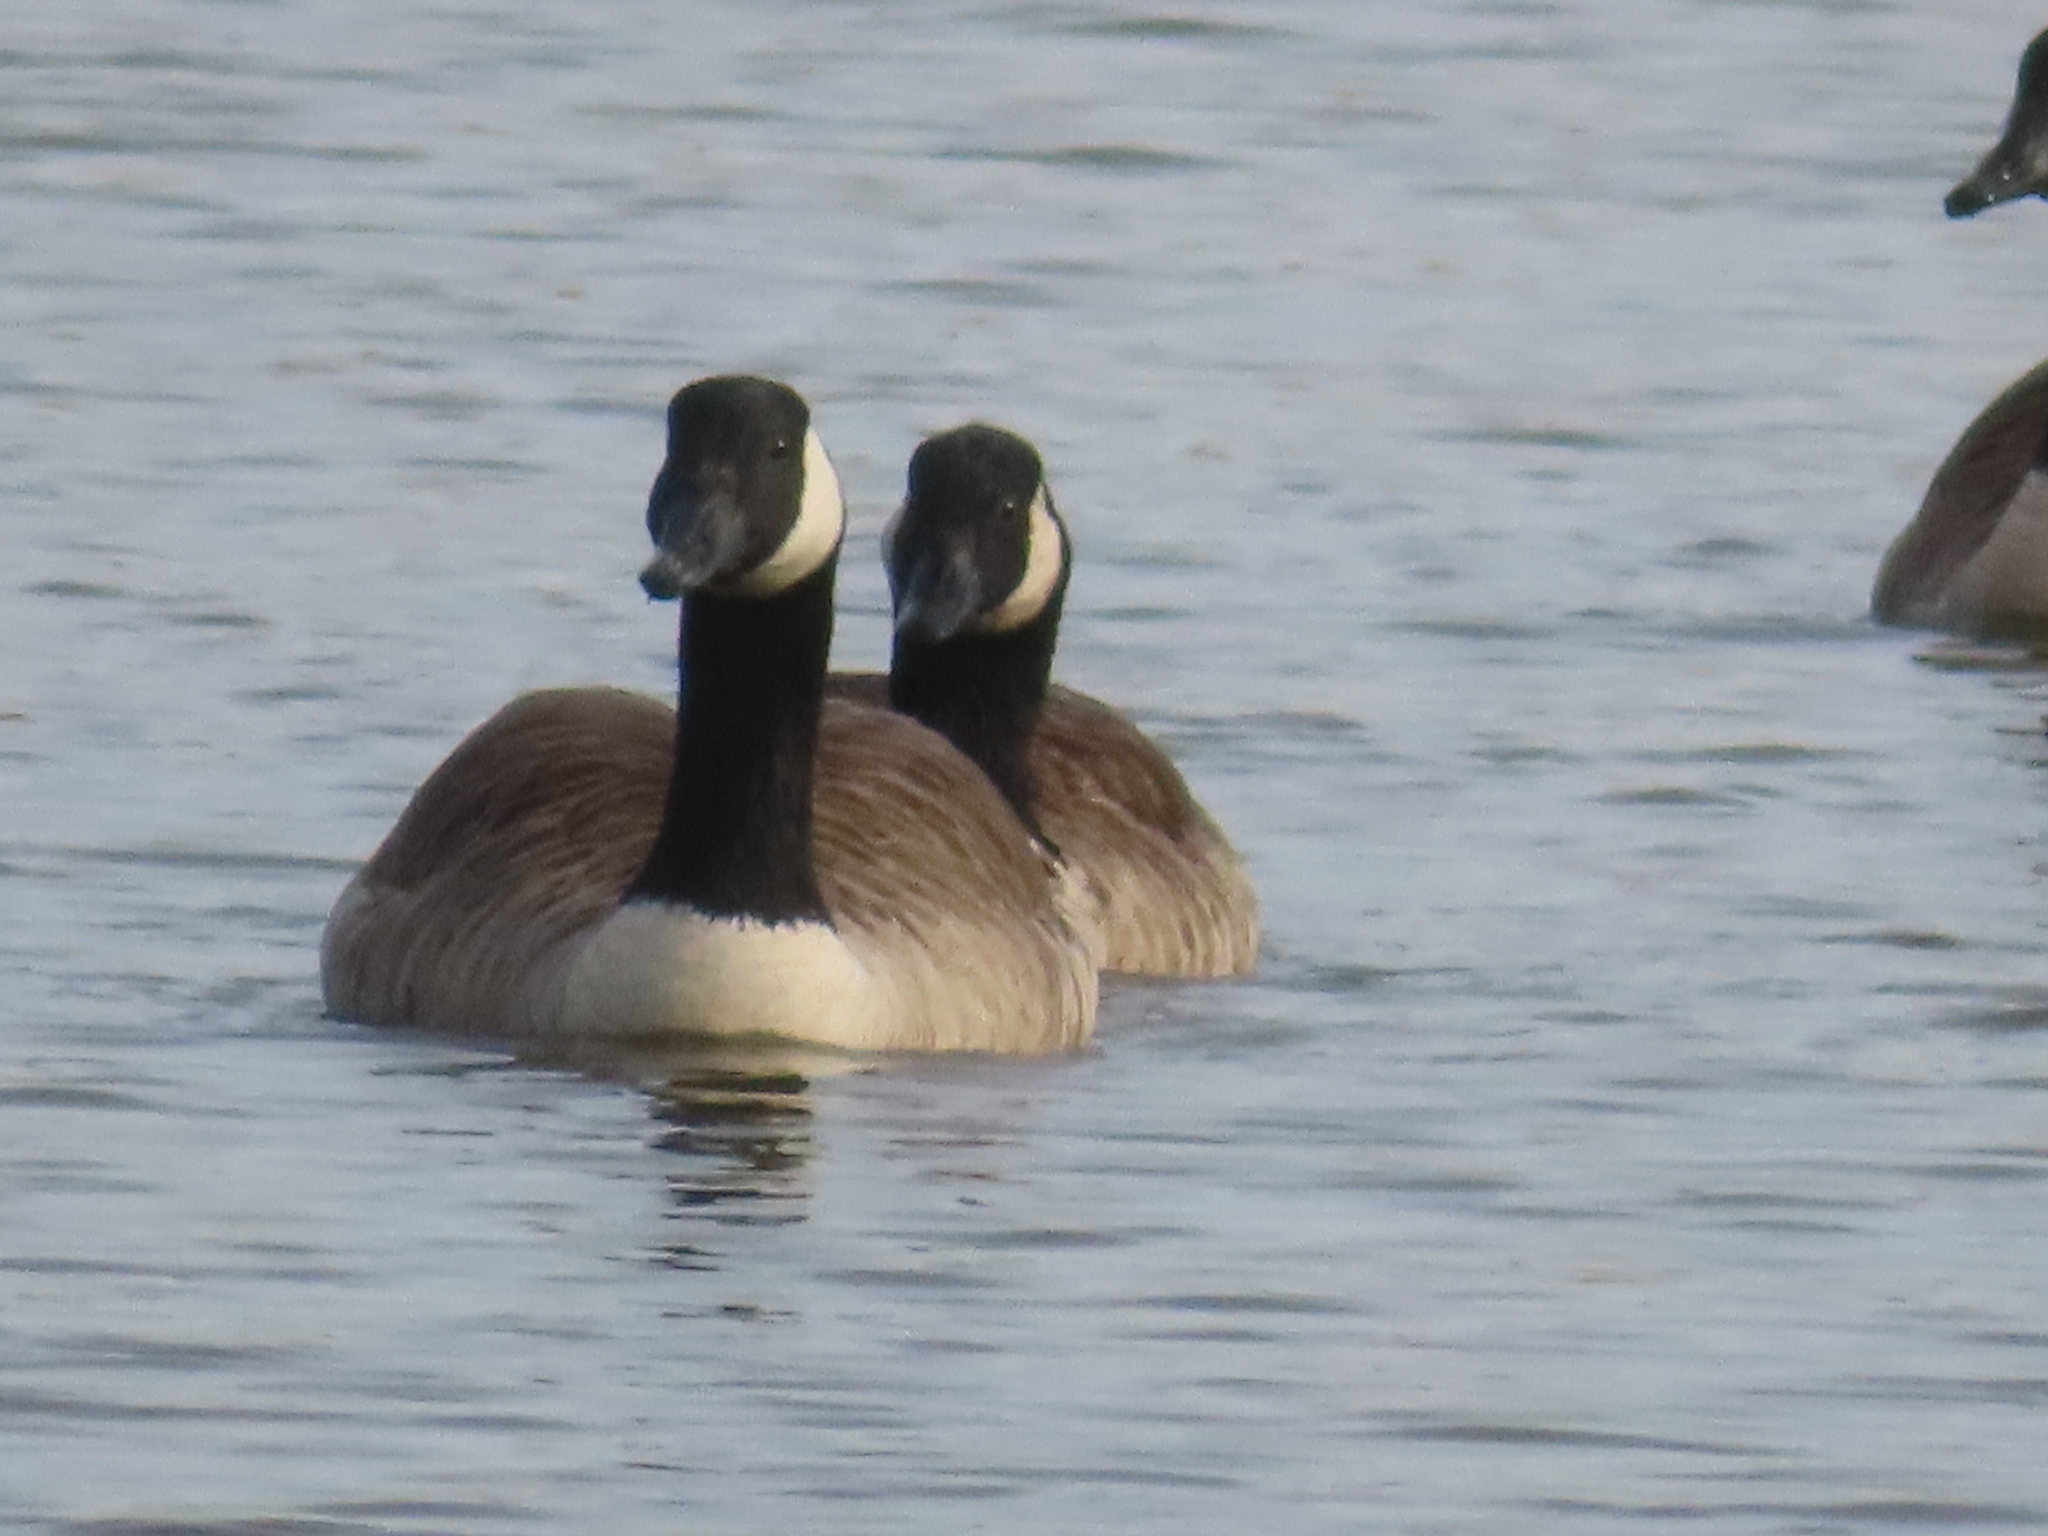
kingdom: Animalia
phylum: Chordata
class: Aves
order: Anseriformes
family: Anatidae
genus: Branta
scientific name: Branta canadensis
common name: Canada goose
